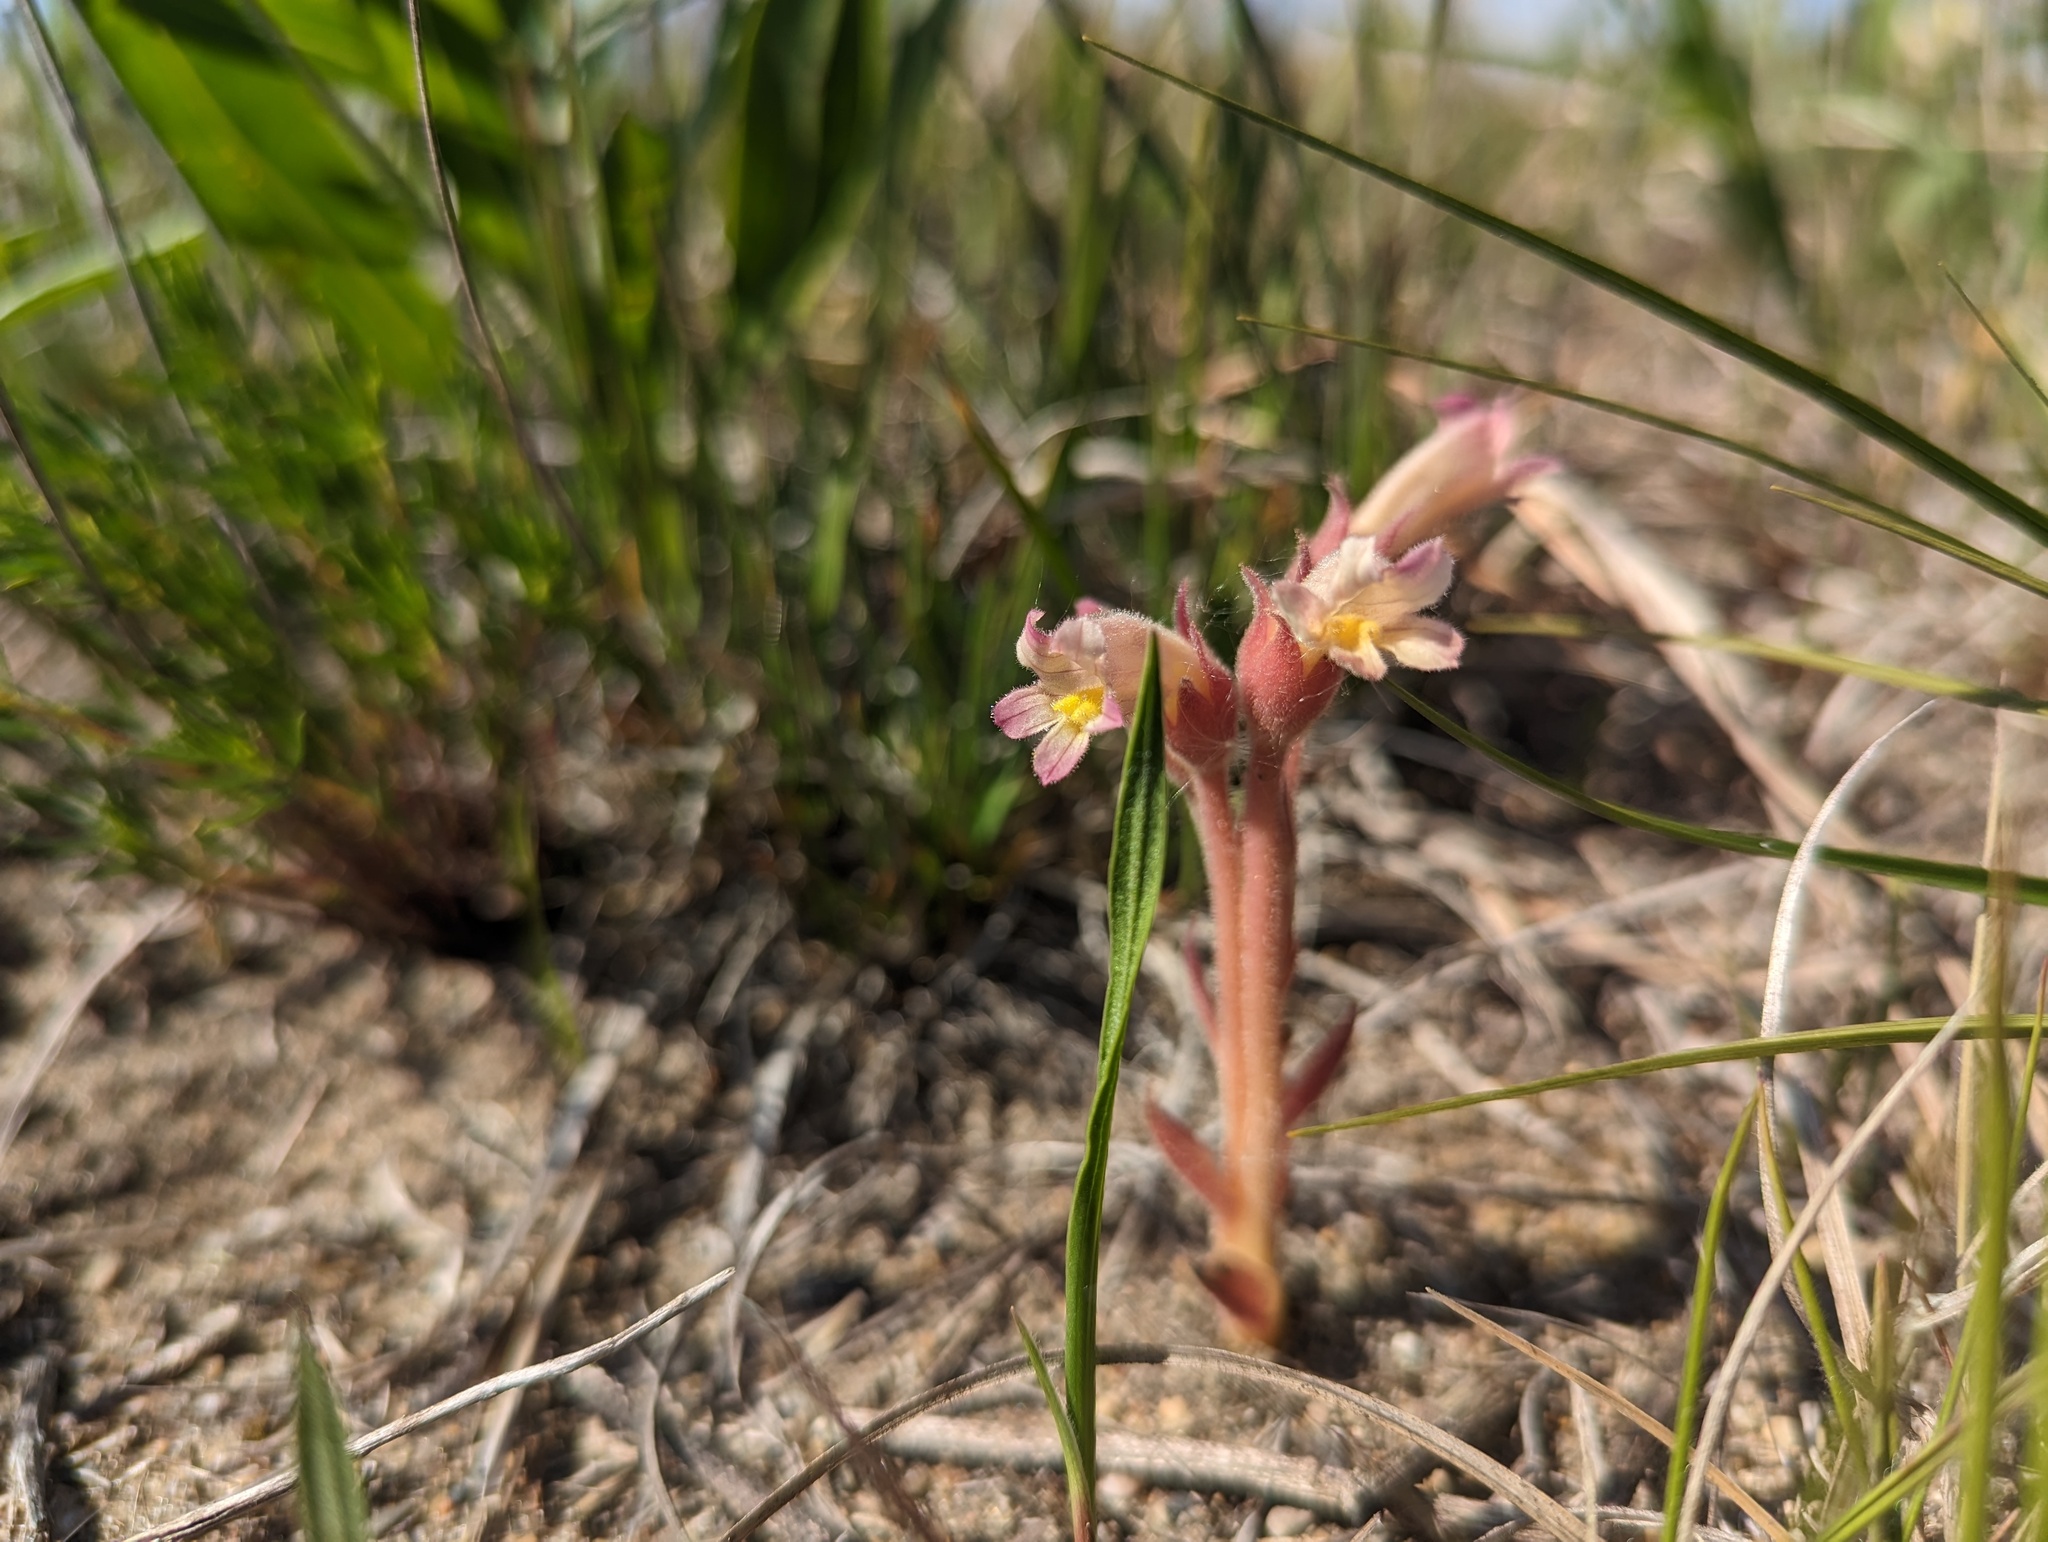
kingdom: Plantae
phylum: Tracheophyta
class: Magnoliopsida
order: Lamiales
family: Orobanchaceae
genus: Aphyllon
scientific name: Aphyllon fasciculatum
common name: Clustered broomrape
